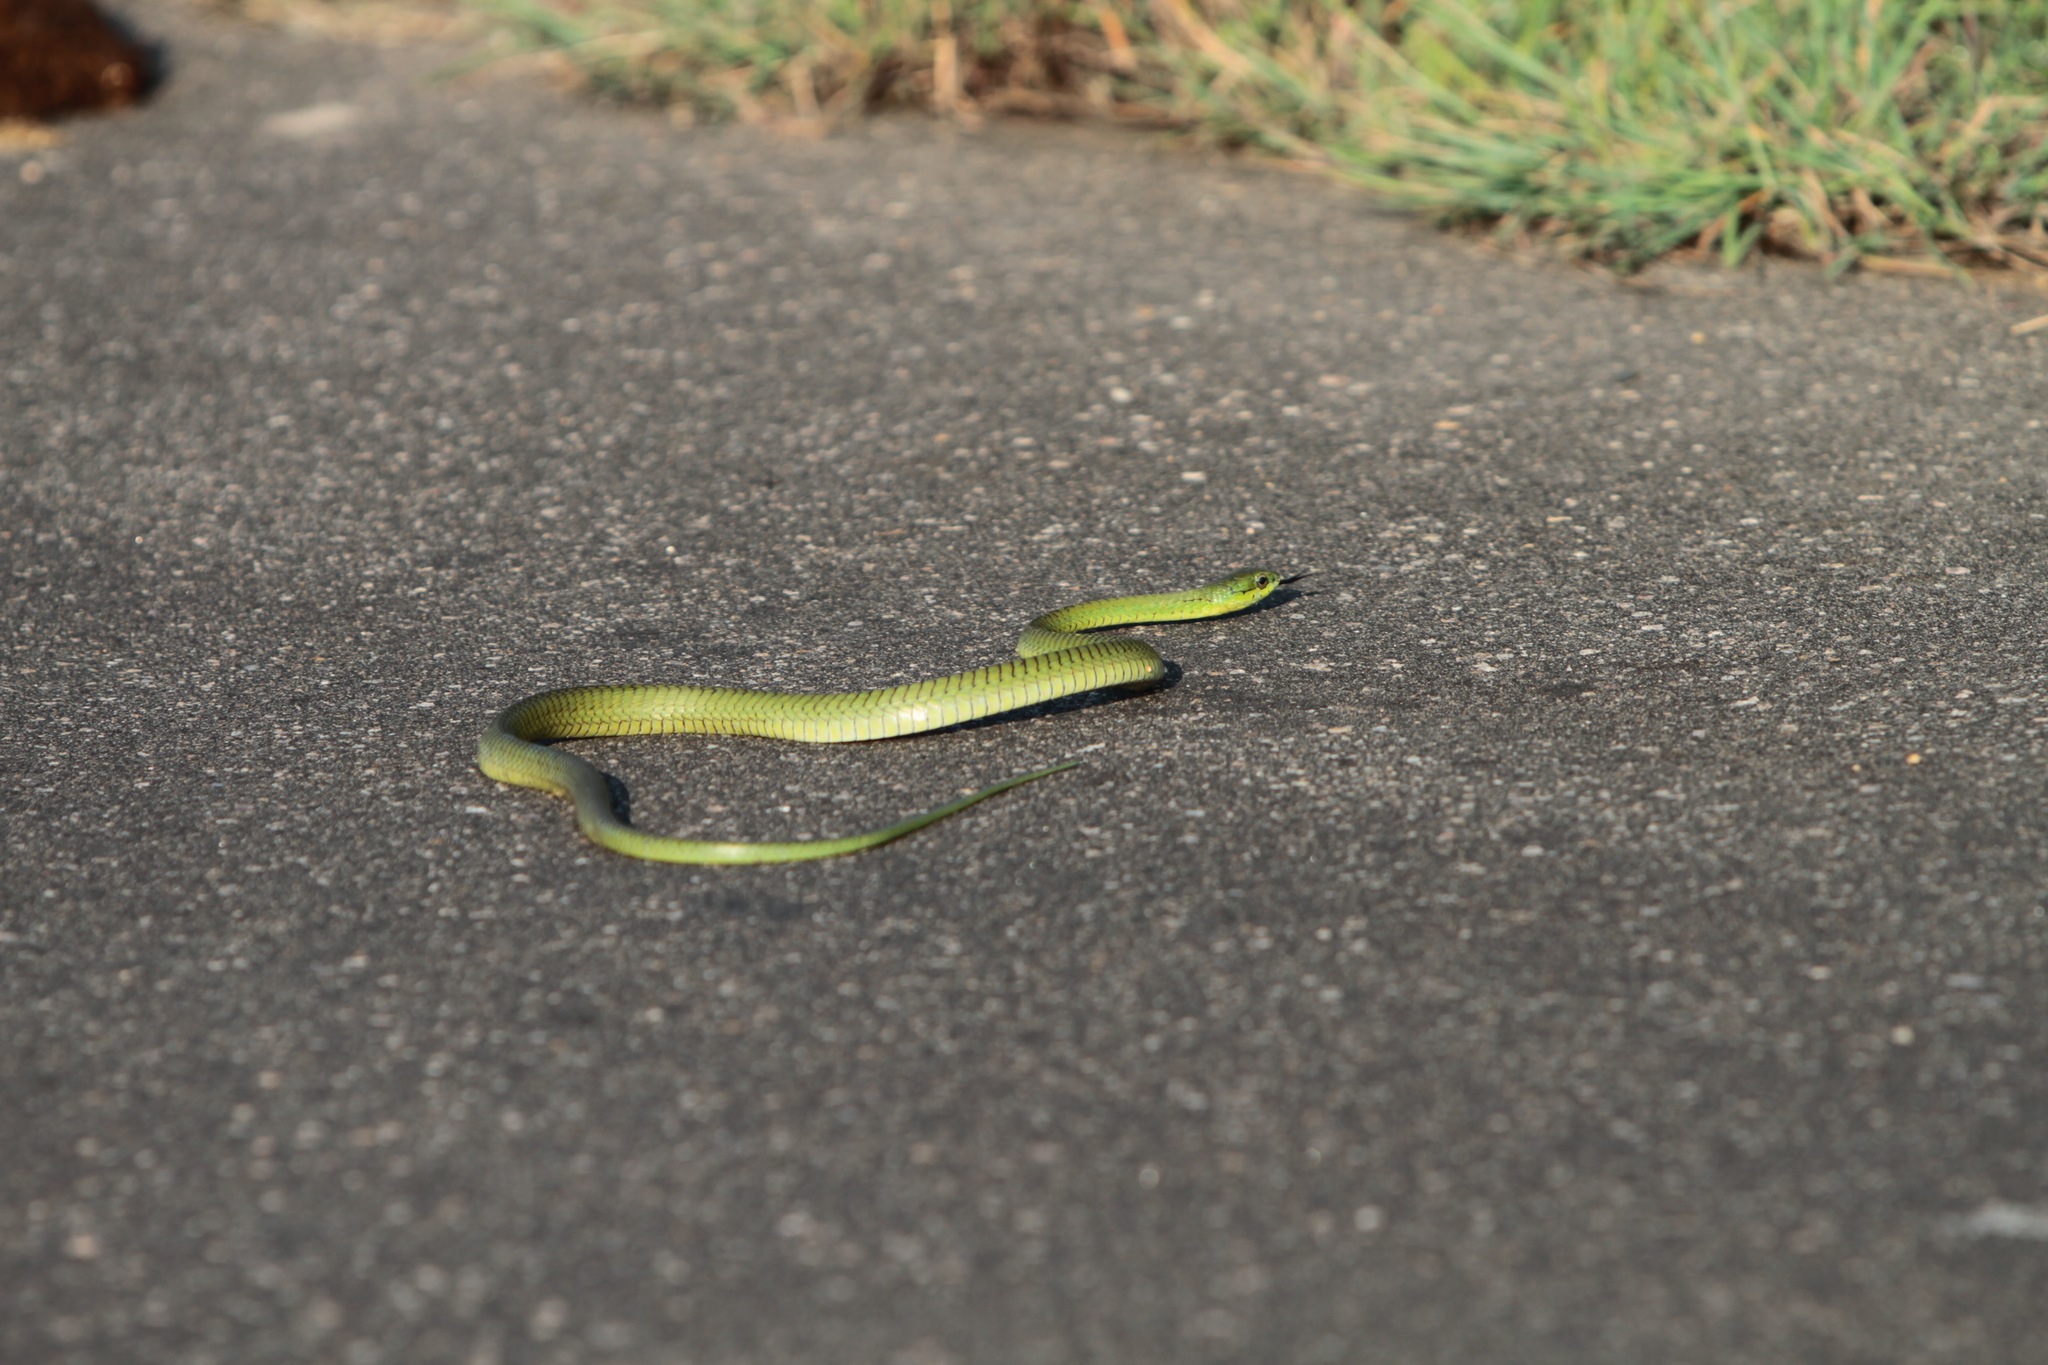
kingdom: Animalia
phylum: Chordata
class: Squamata
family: Colubridae
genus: Dispholidus
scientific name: Dispholidus typus
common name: Boomslang
